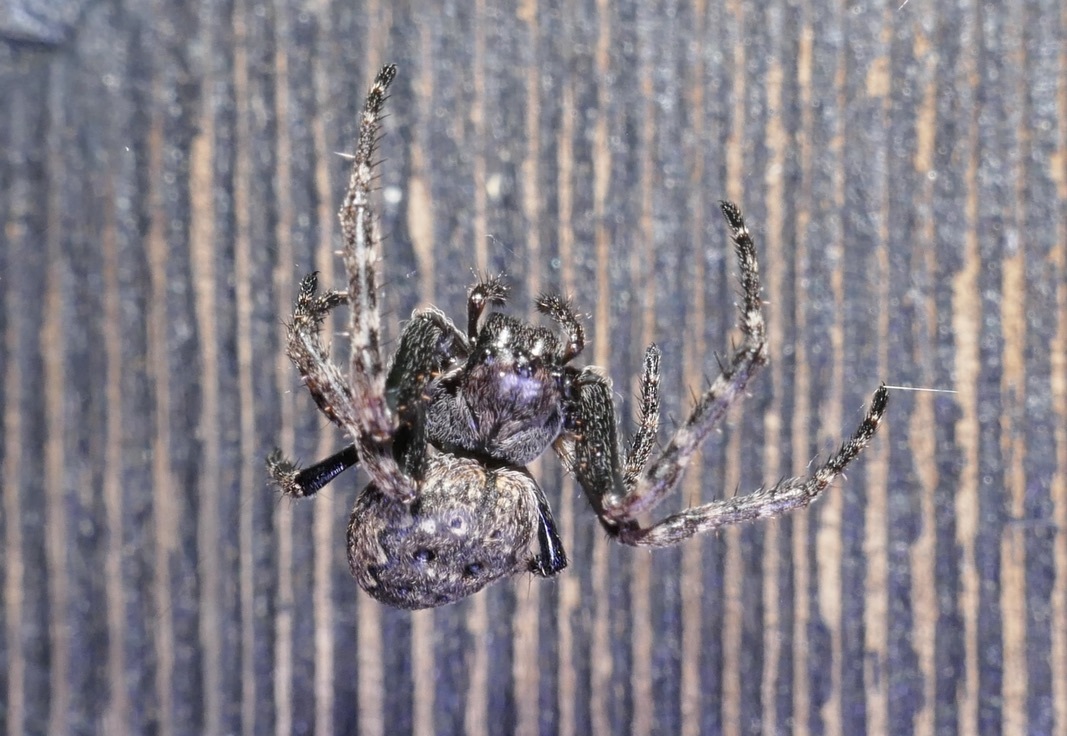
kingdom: Animalia
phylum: Arthropoda
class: Arachnida
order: Araneae
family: Araneidae
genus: Nuctenea
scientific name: Nuctenea umbratica
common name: Toad spider
